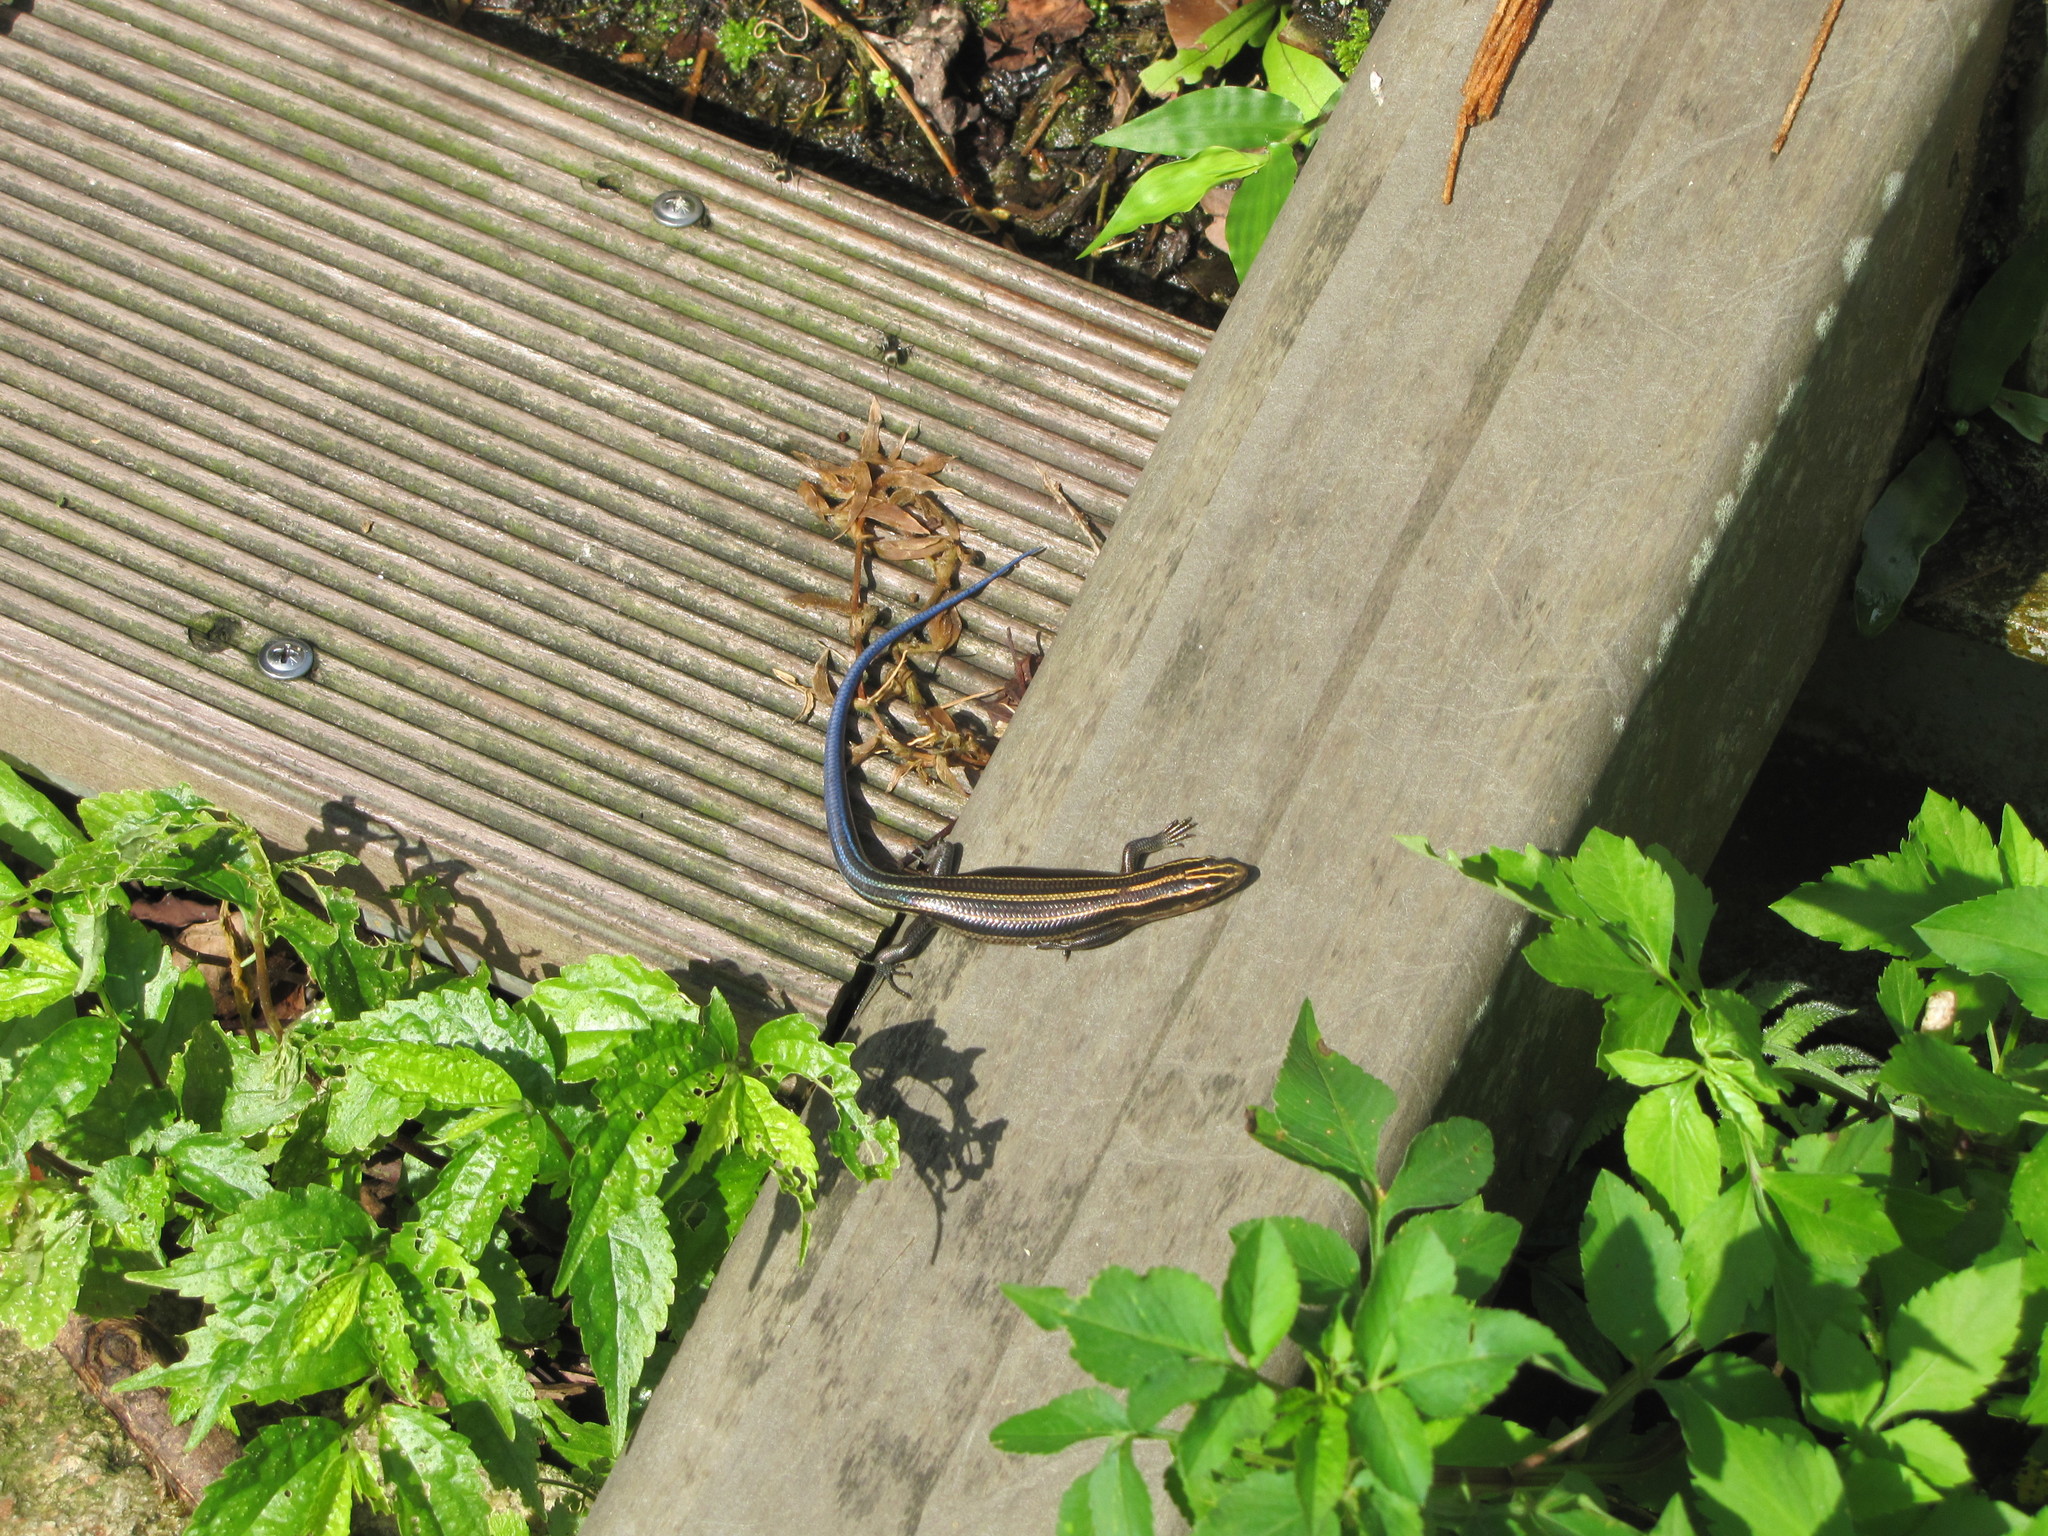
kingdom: Animalia
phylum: Chordata
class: Squamata
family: Scincidae
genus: Plestiodon
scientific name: Plestiodon elegans
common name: Shanghai elegant skink
